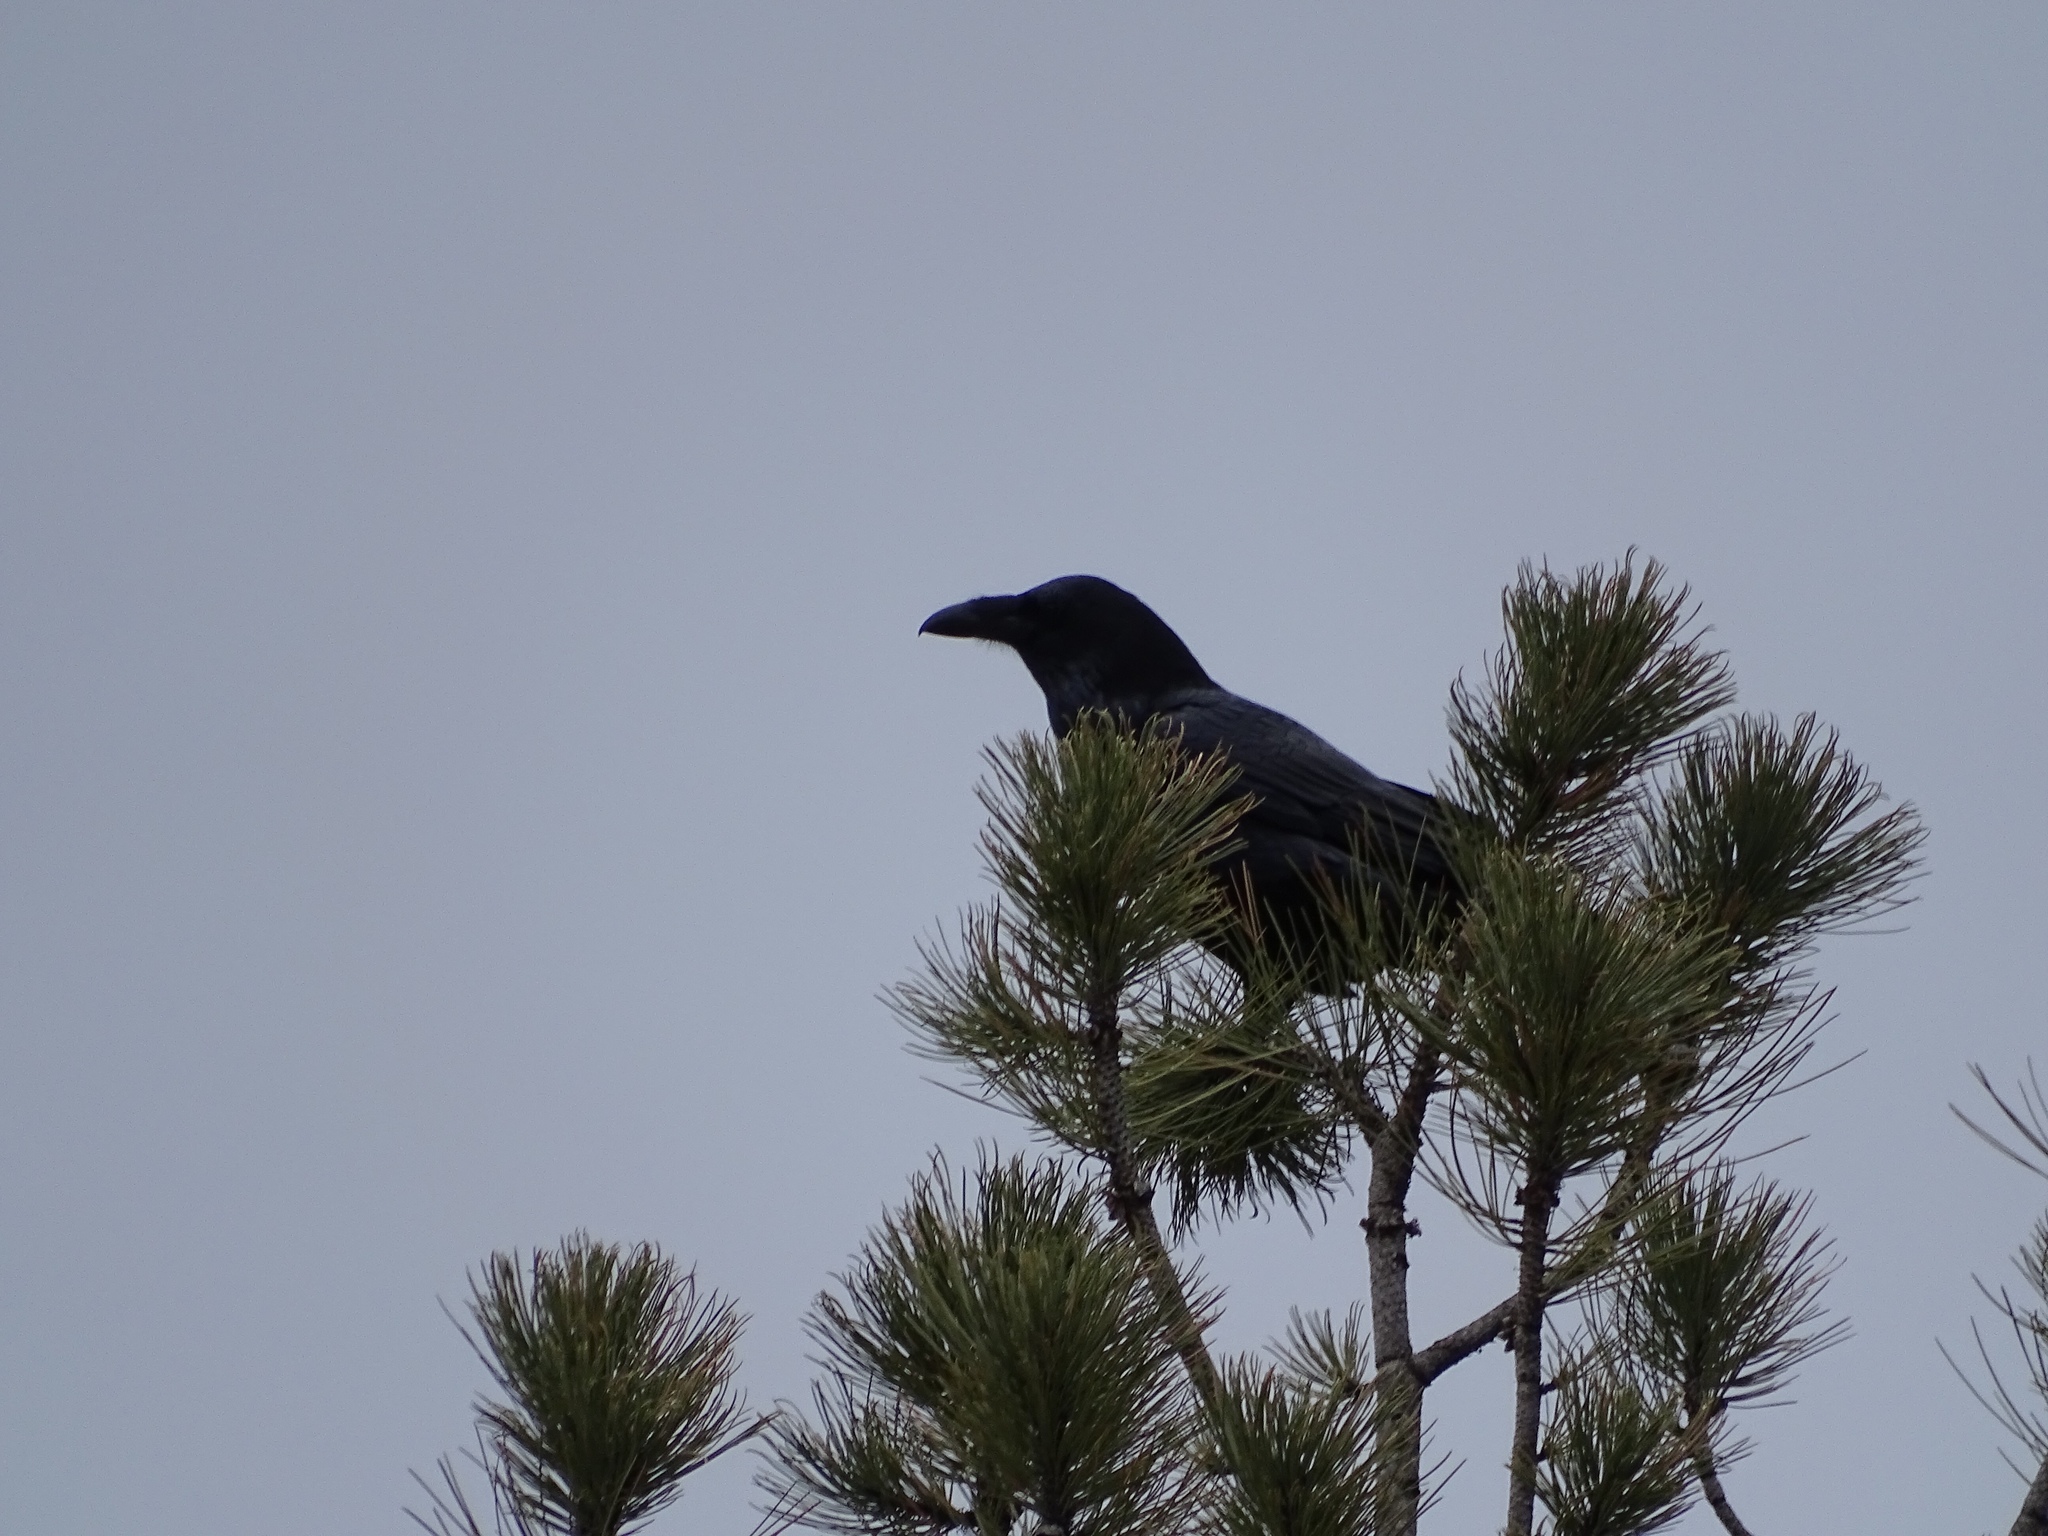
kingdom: Animalia
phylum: Chordata
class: Aves
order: Passeriformes
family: Corvidae
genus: Corvus
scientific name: Corvus corax
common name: Common raven
